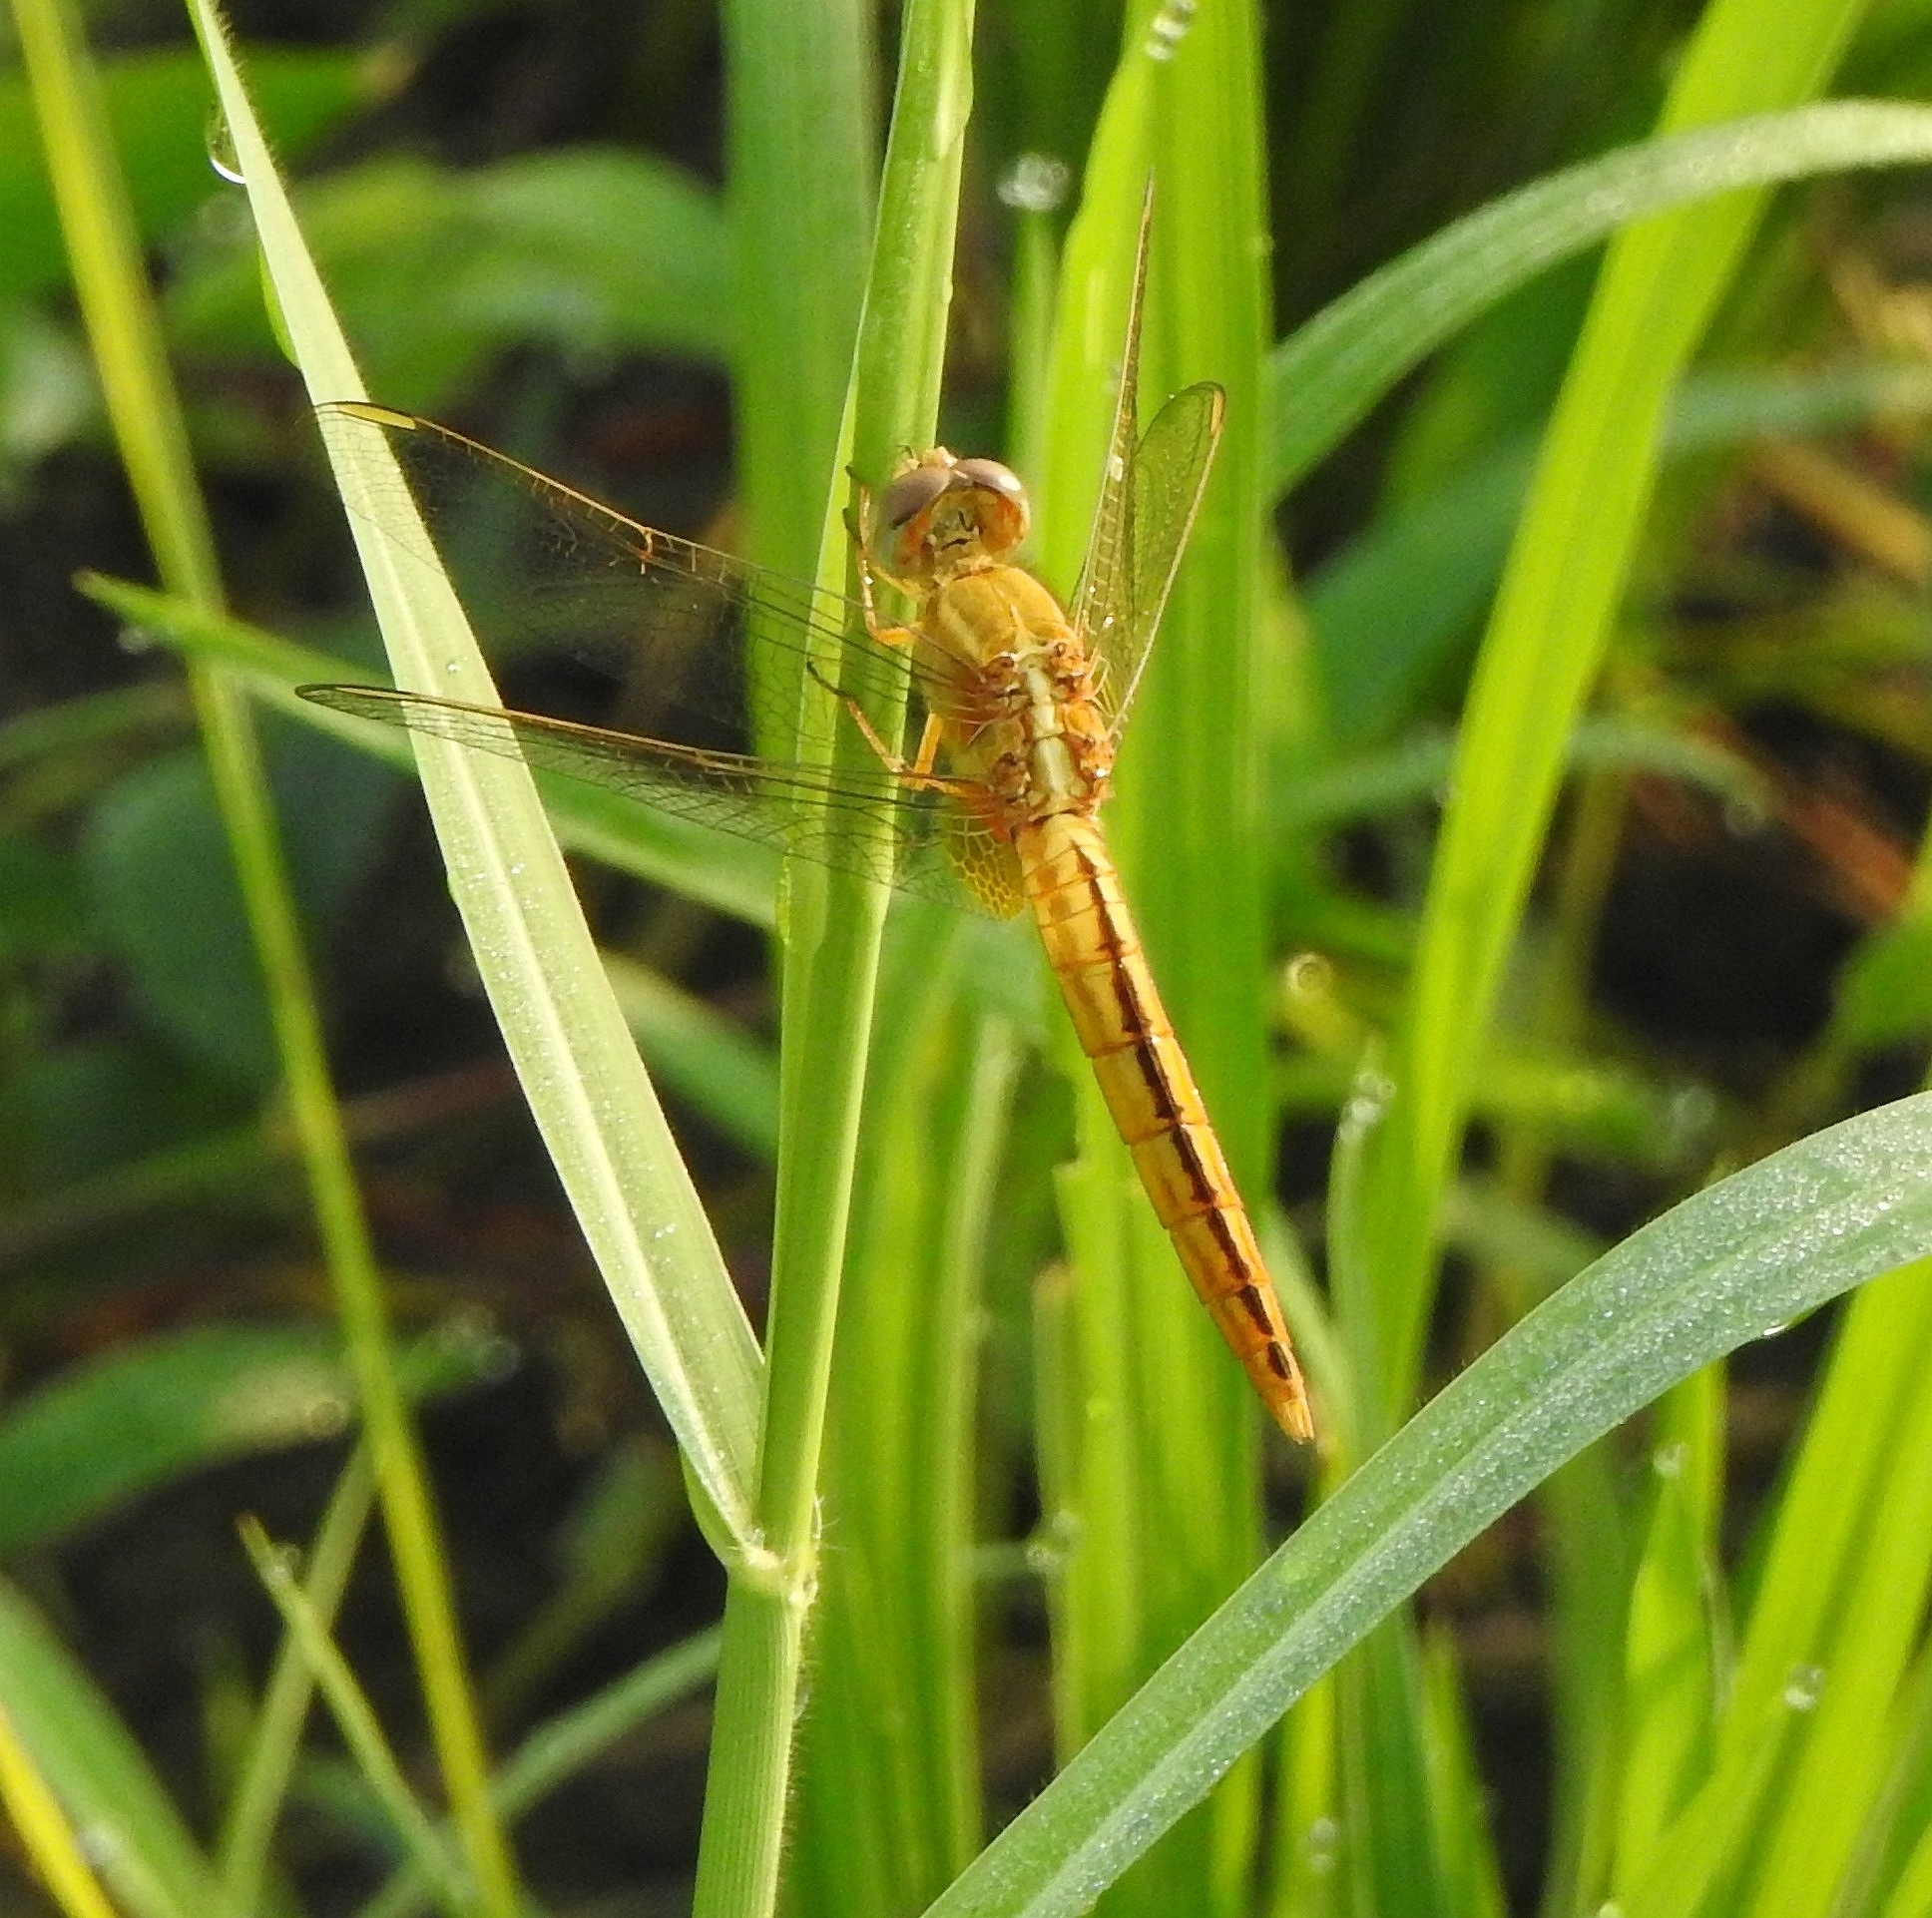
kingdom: Animalia
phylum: Arthropoda
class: Insecta
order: Odonata
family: Libellulidae
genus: Crocothemis
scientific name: Crocothemis servilia
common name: Scarlet skimmer
